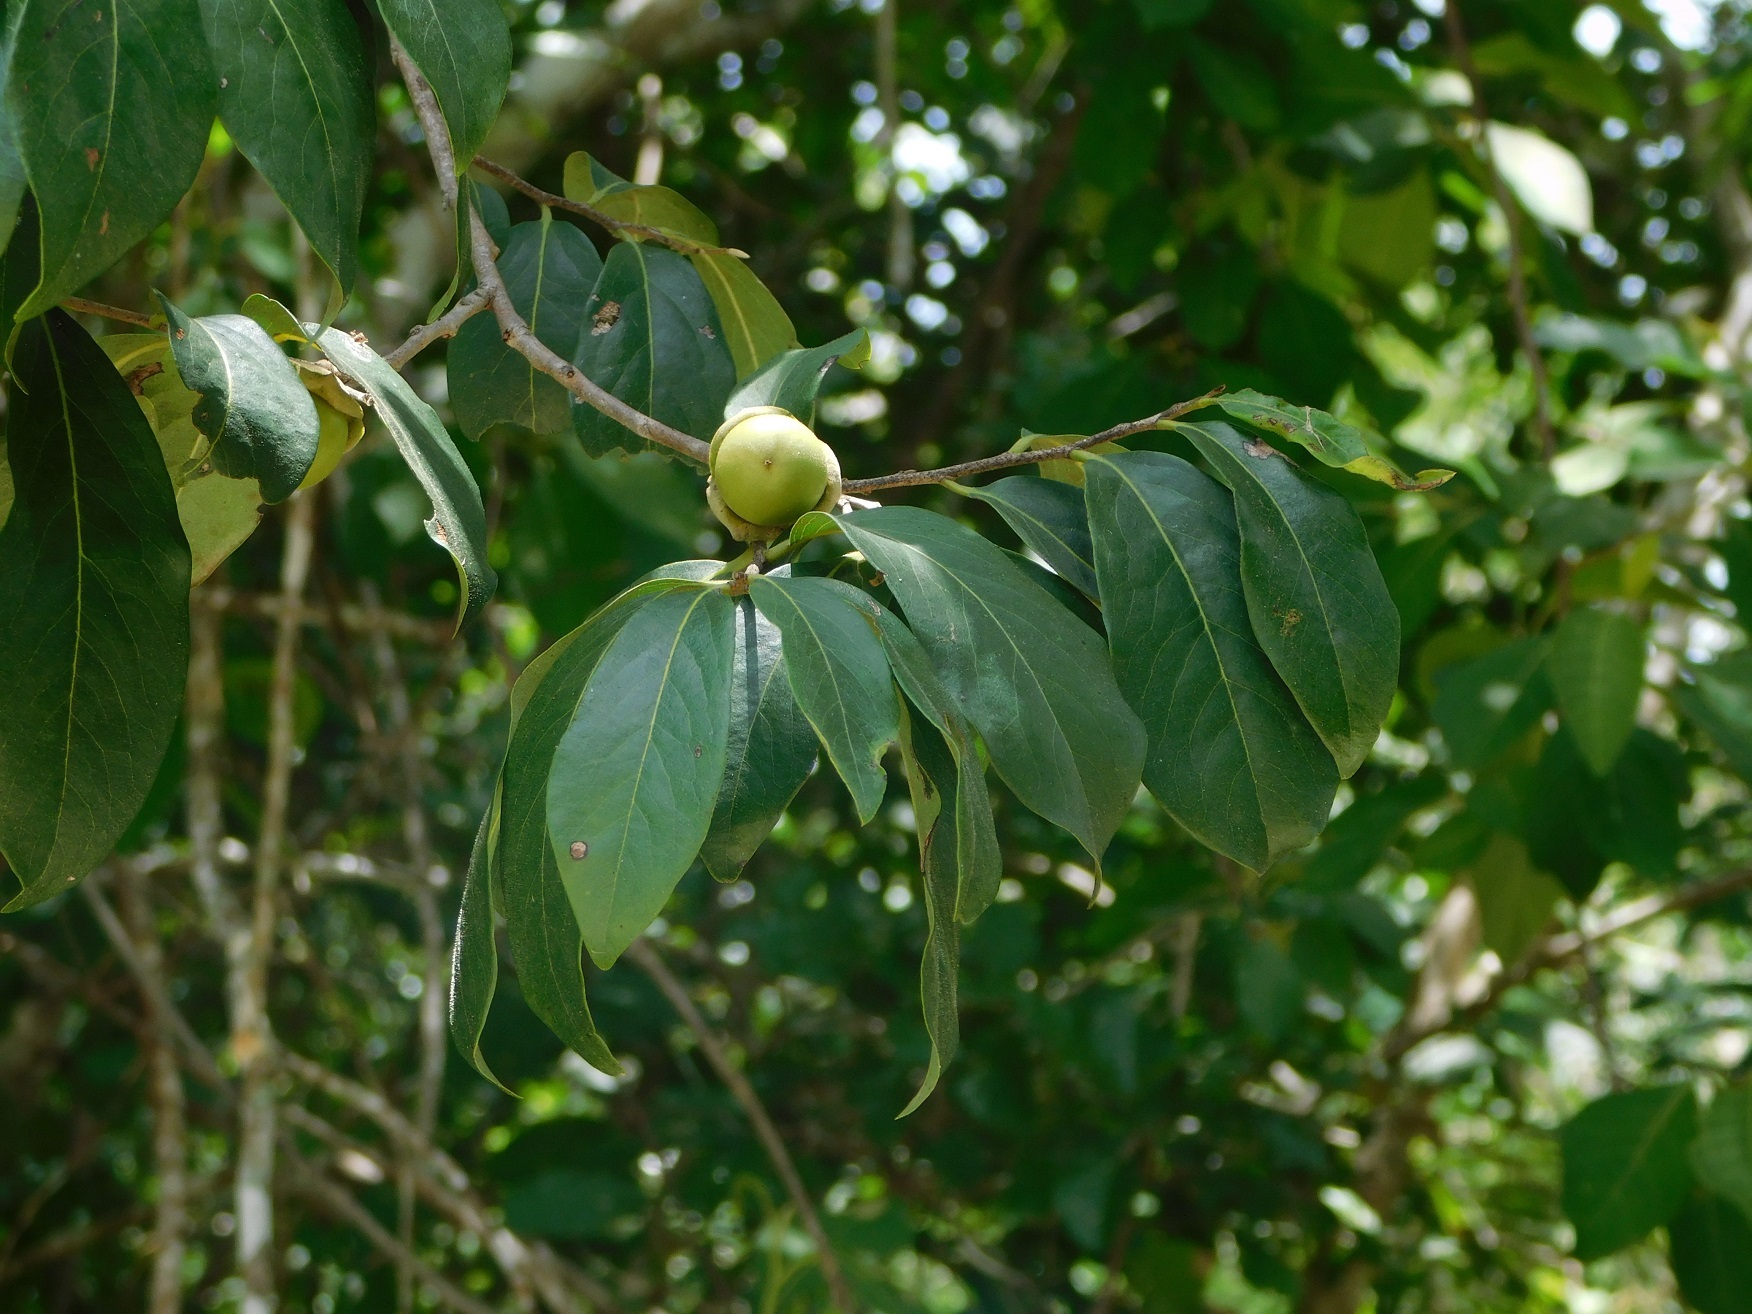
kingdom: Plantae
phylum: Tracheophyta
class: Magnoliopsida
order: Ericales
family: Ebenaceae
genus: Diospyros
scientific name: Diospyros salicifolia
